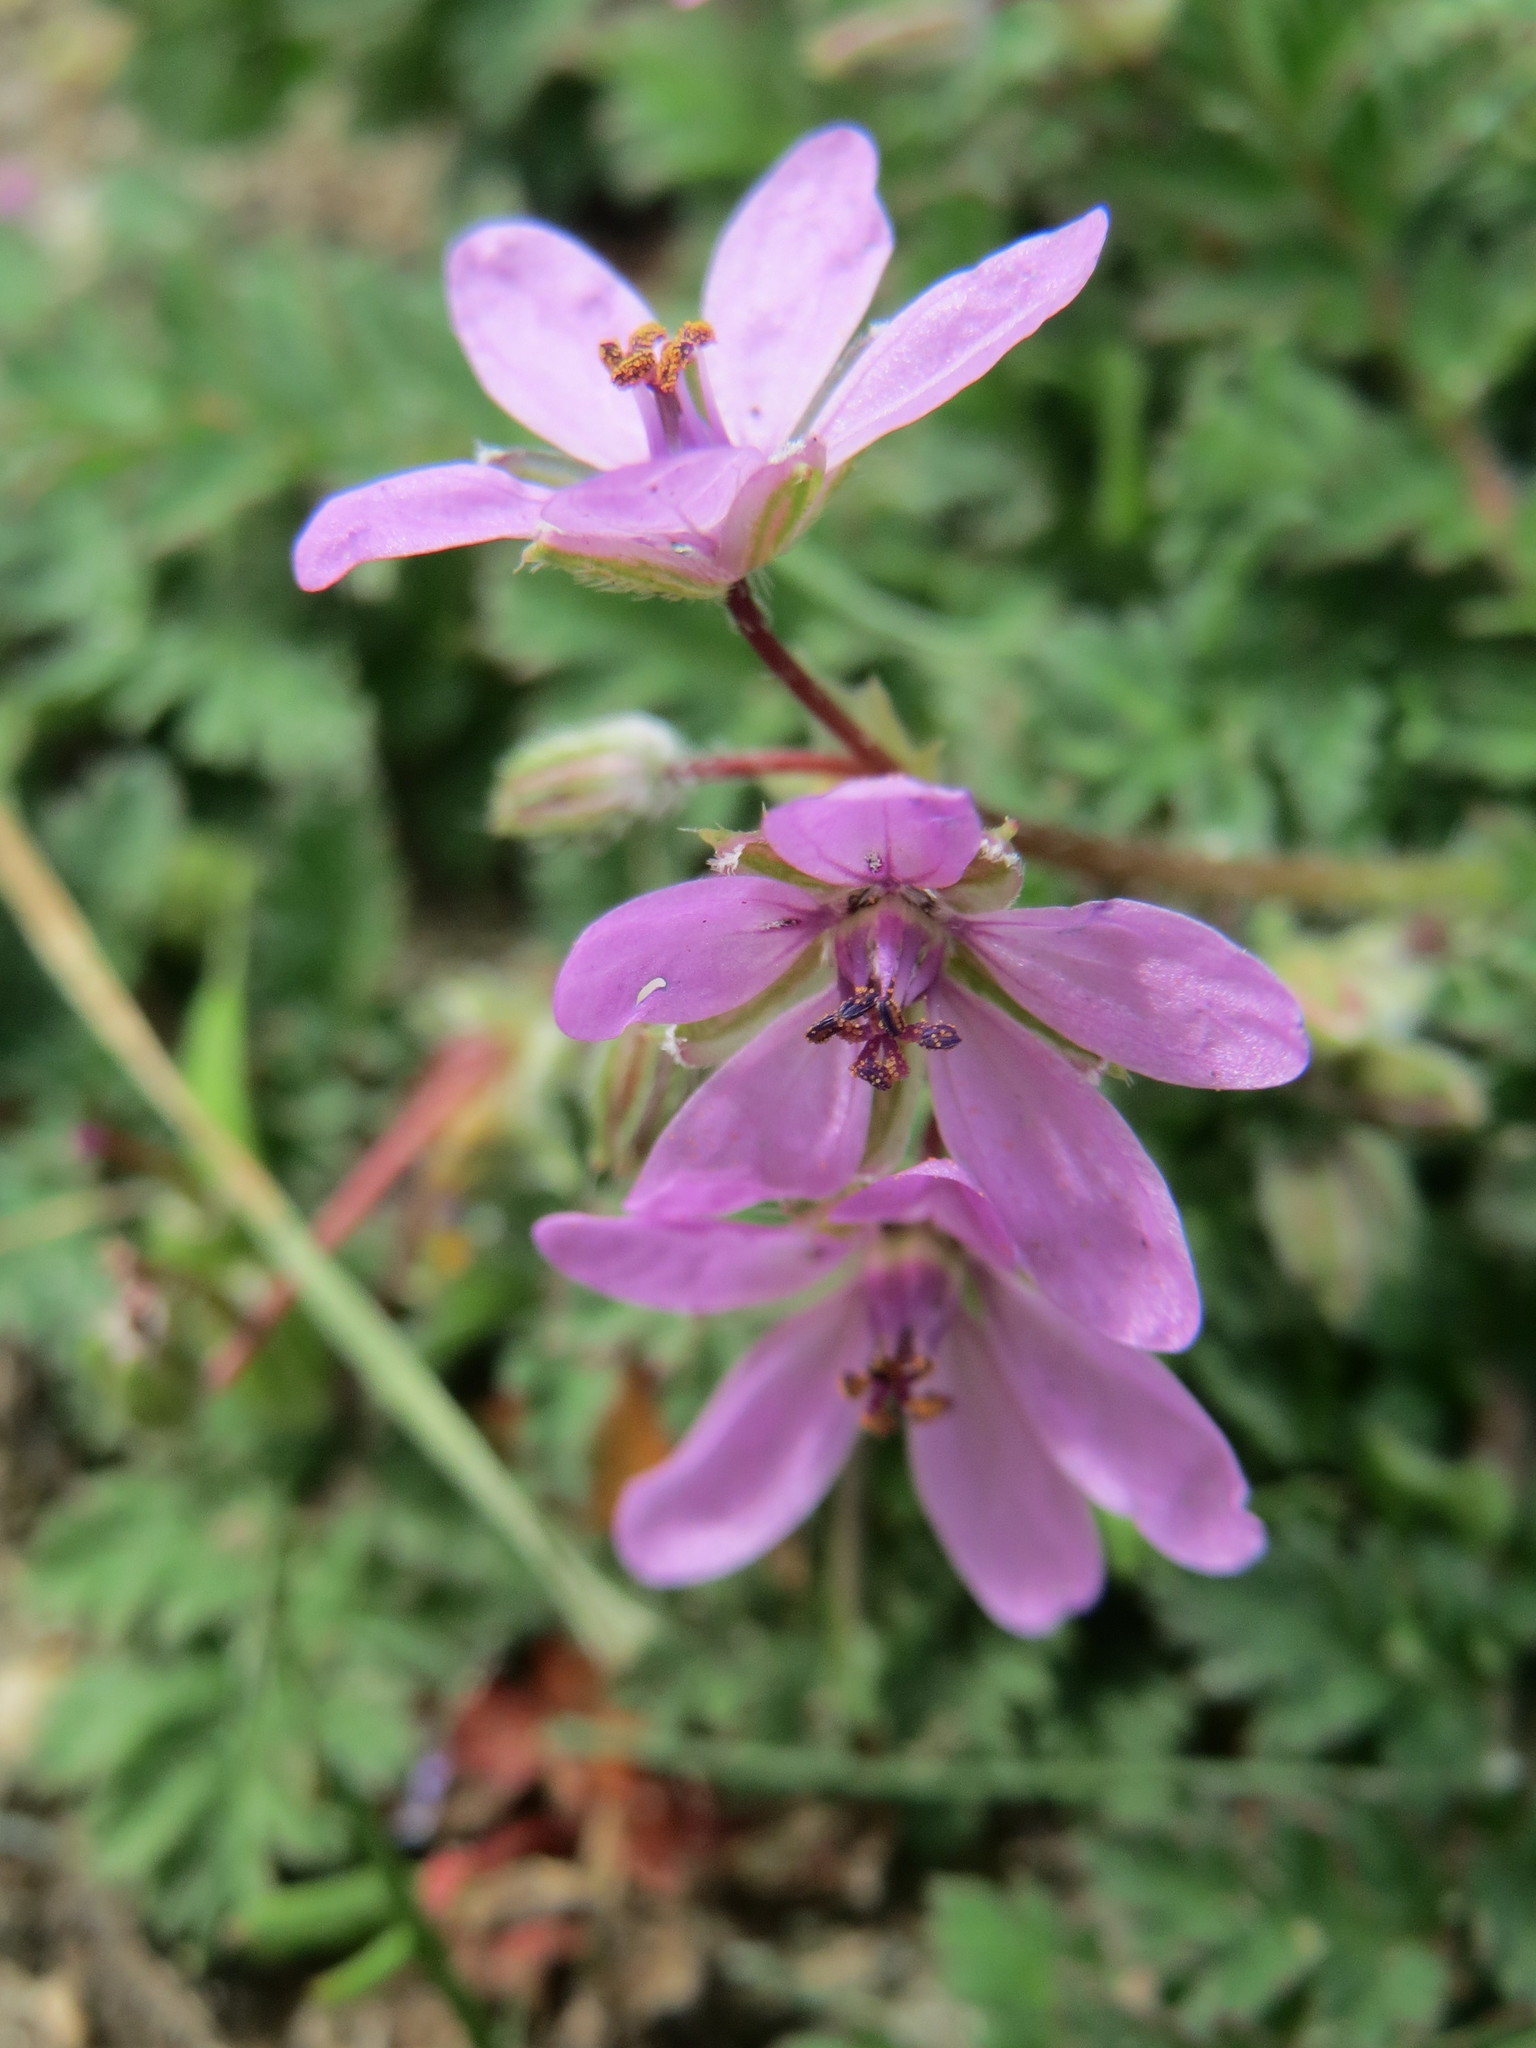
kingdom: Plantae
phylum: Tracheophyta
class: Magnoliopsida
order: Geraniales
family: Geraniaceae
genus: Erodium
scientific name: Erodium cicutarium
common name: Common stork's-bill
